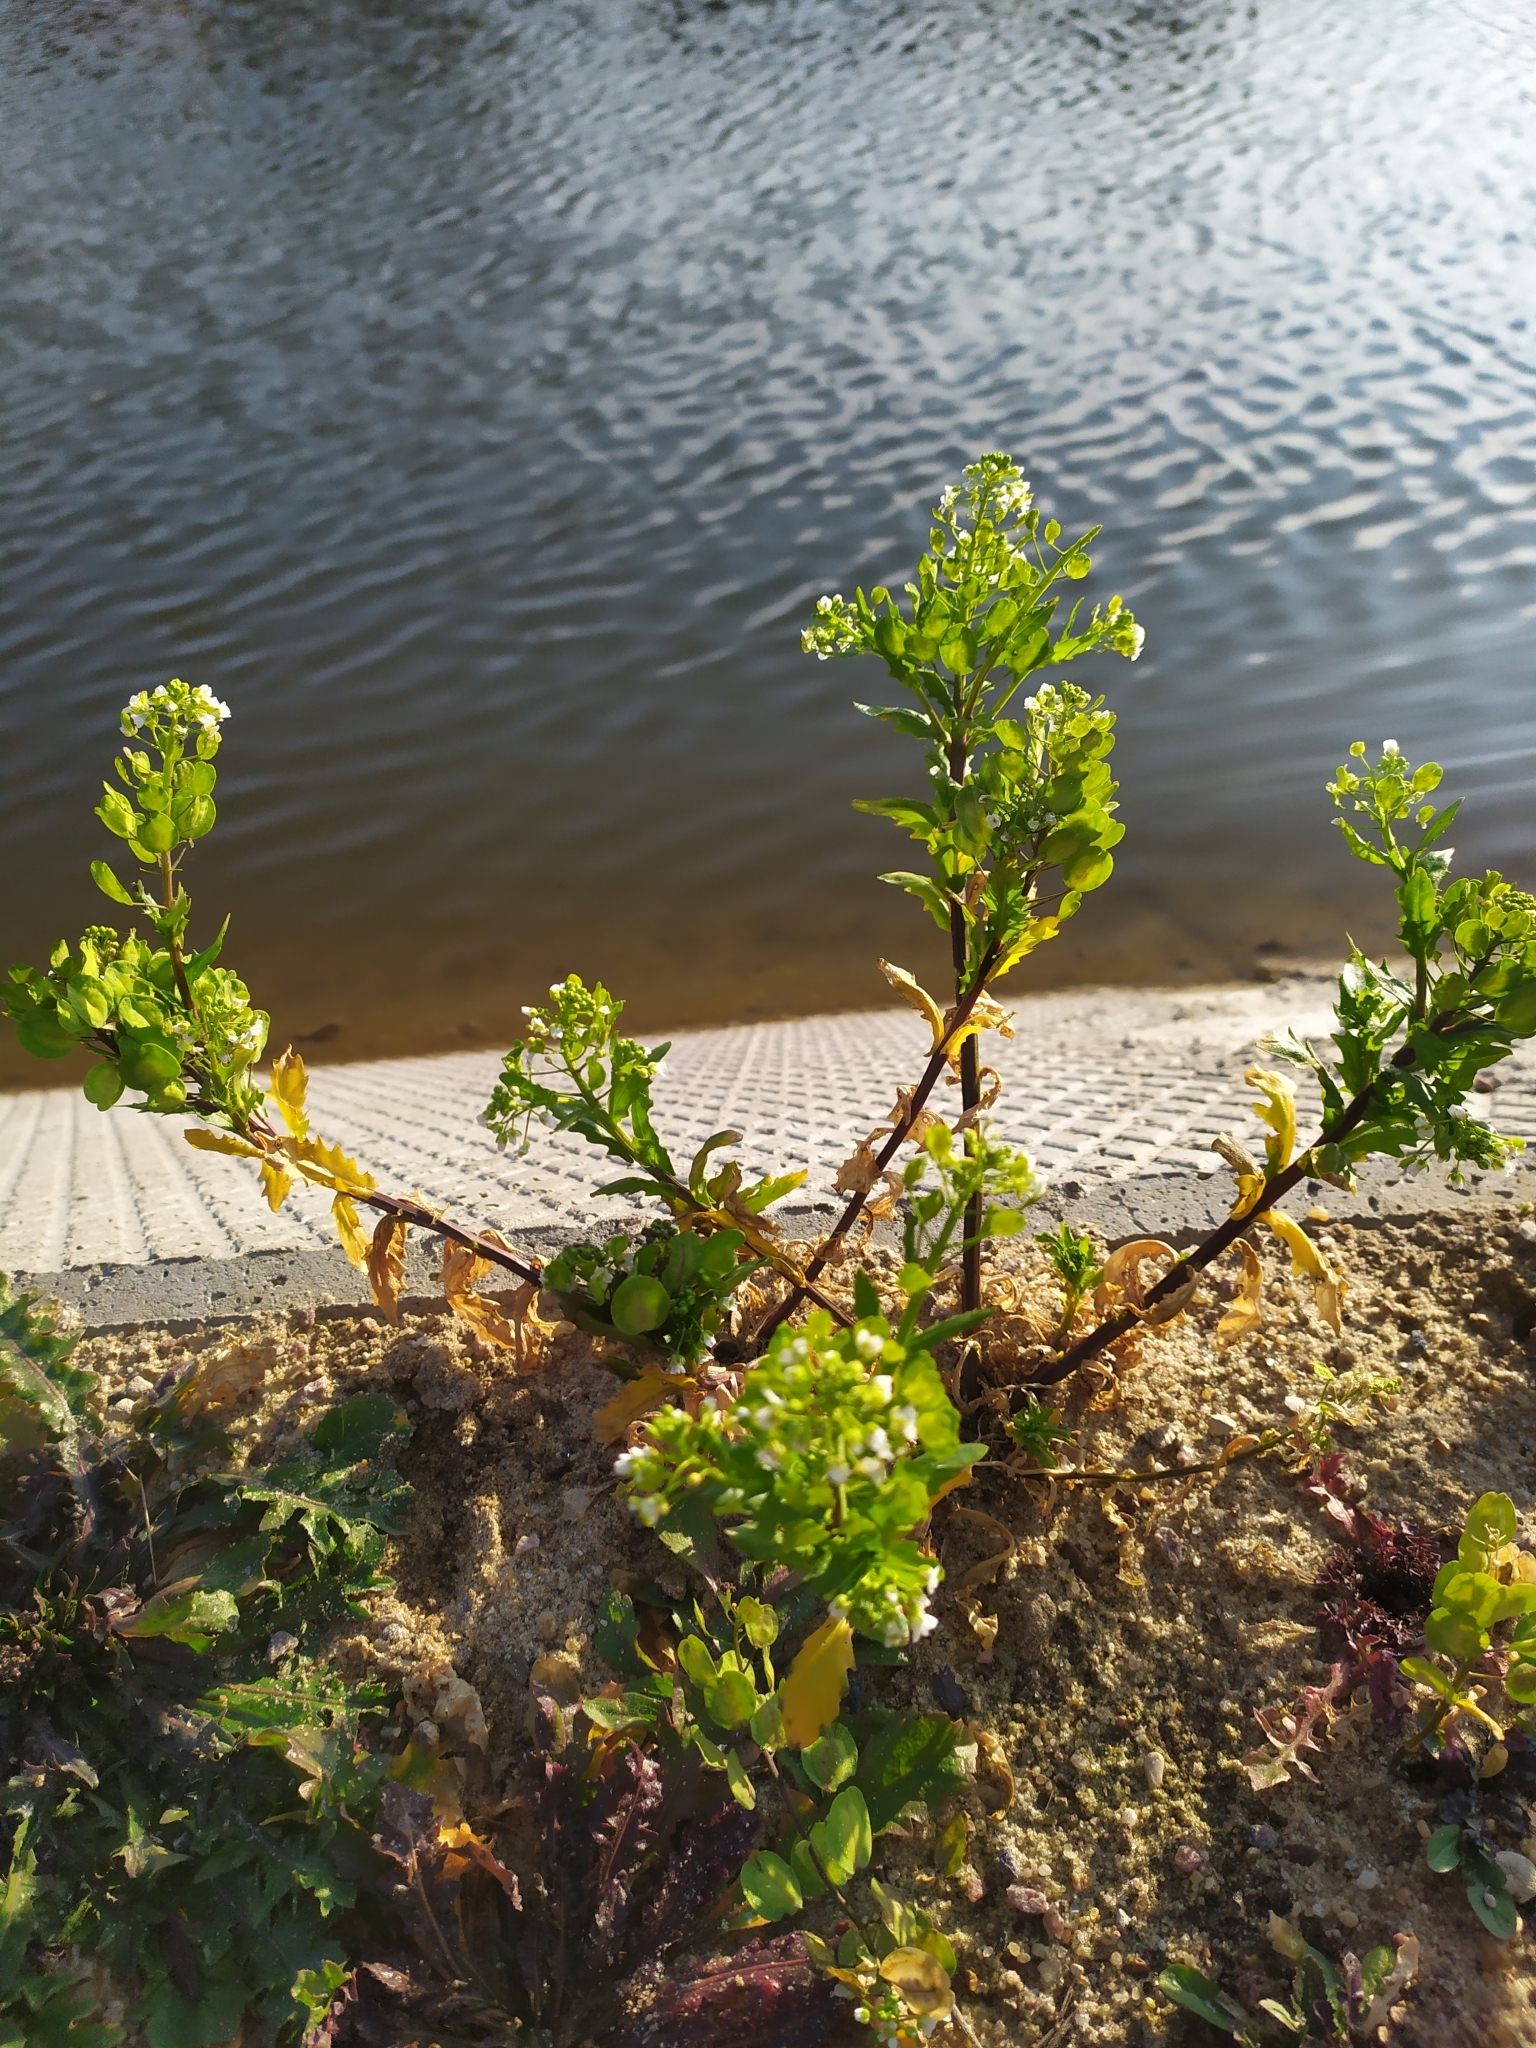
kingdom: Plantae
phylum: Tracheophyta
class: Magnoliopsida
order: Brassicales
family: Brassicaceae
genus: Thlaspi
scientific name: Thlaspi arvense
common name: Field pennycress
